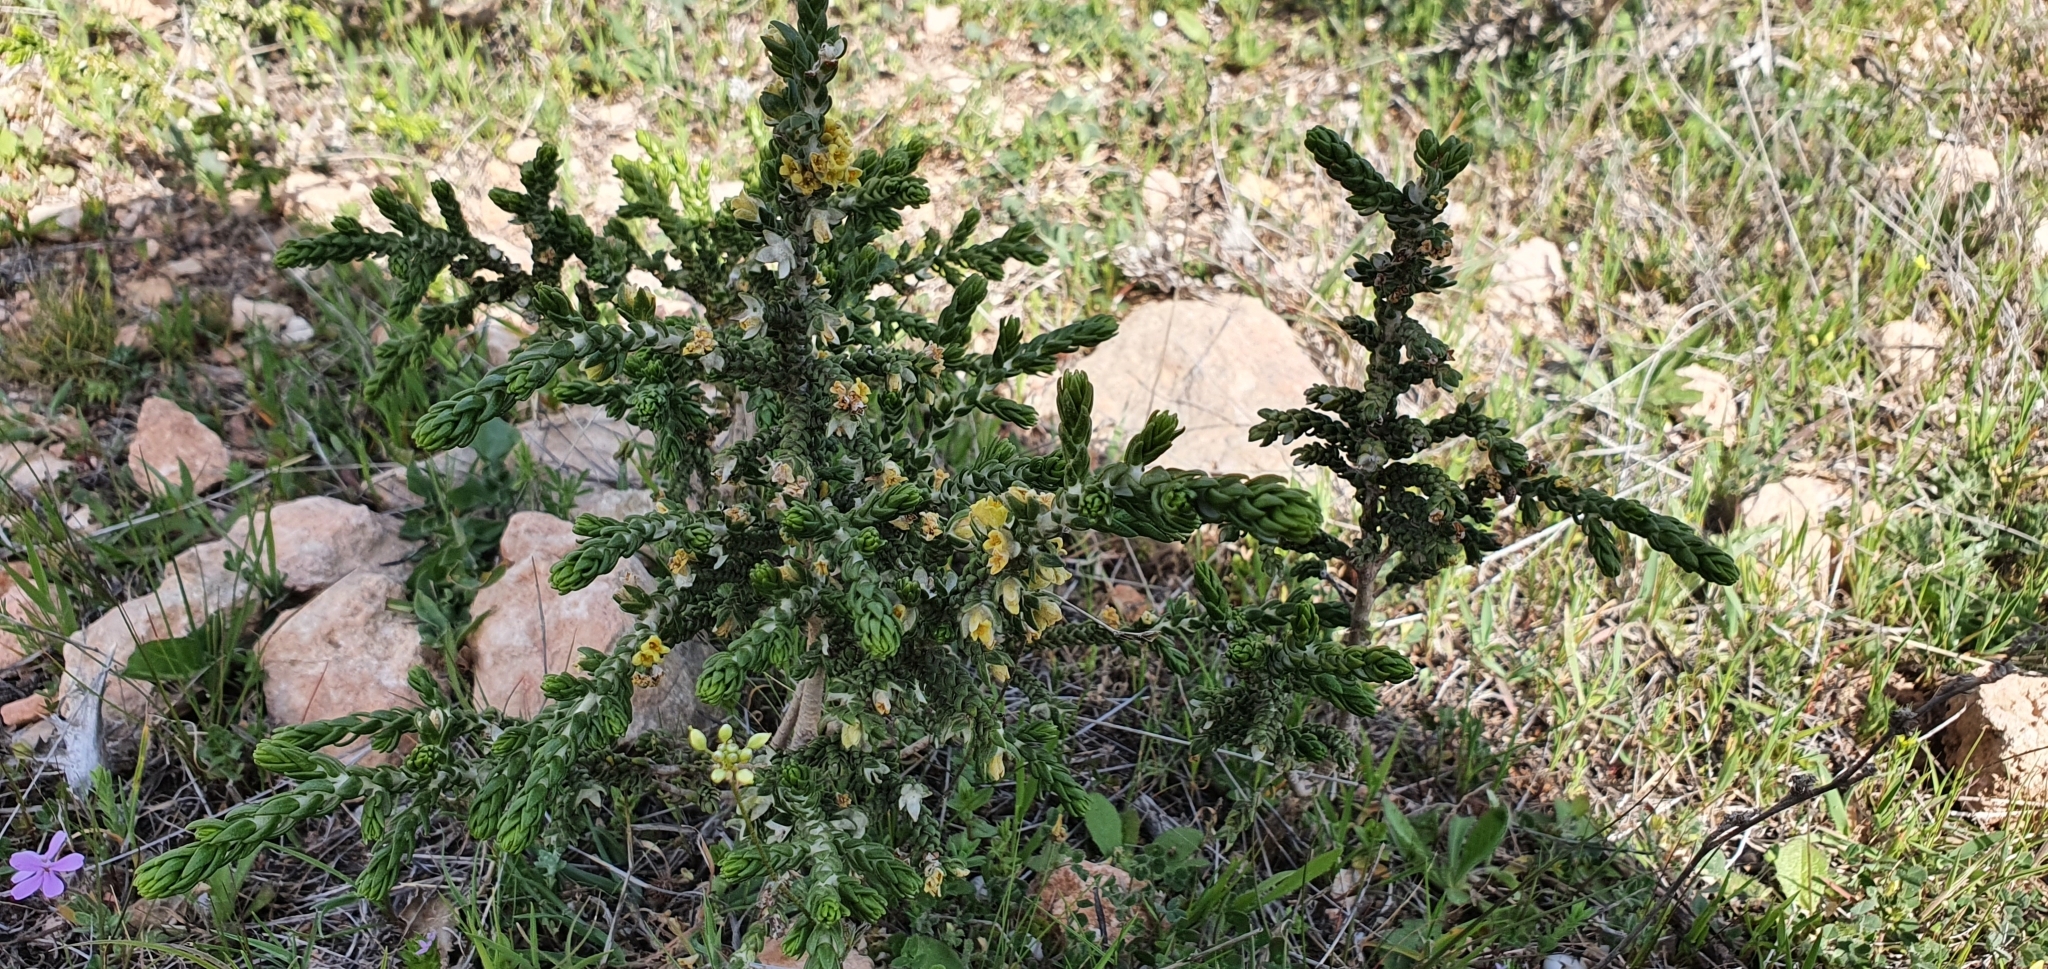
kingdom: Plantae
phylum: Tracheophyta
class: Magnoliopsida
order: Malvales
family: Thymelaeaceae
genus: Thymelaea
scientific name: Thymelaea hirsuta
